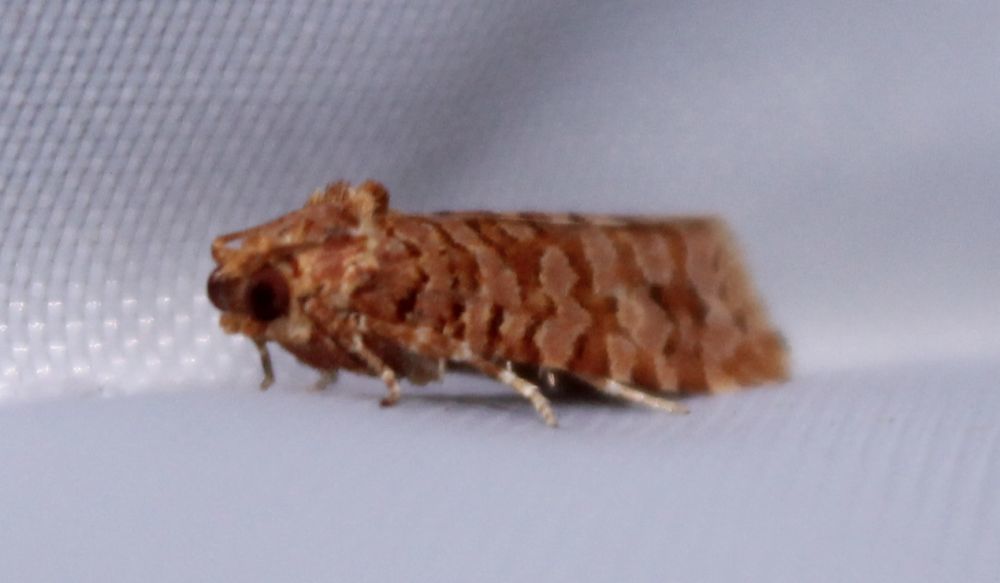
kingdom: Animalia
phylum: Arthropoda
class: Insecta
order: Lepidoptera
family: Tortricidae
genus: Lozotaeniodes
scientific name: Lozotaeniodes formosana
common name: Orange pine twist
